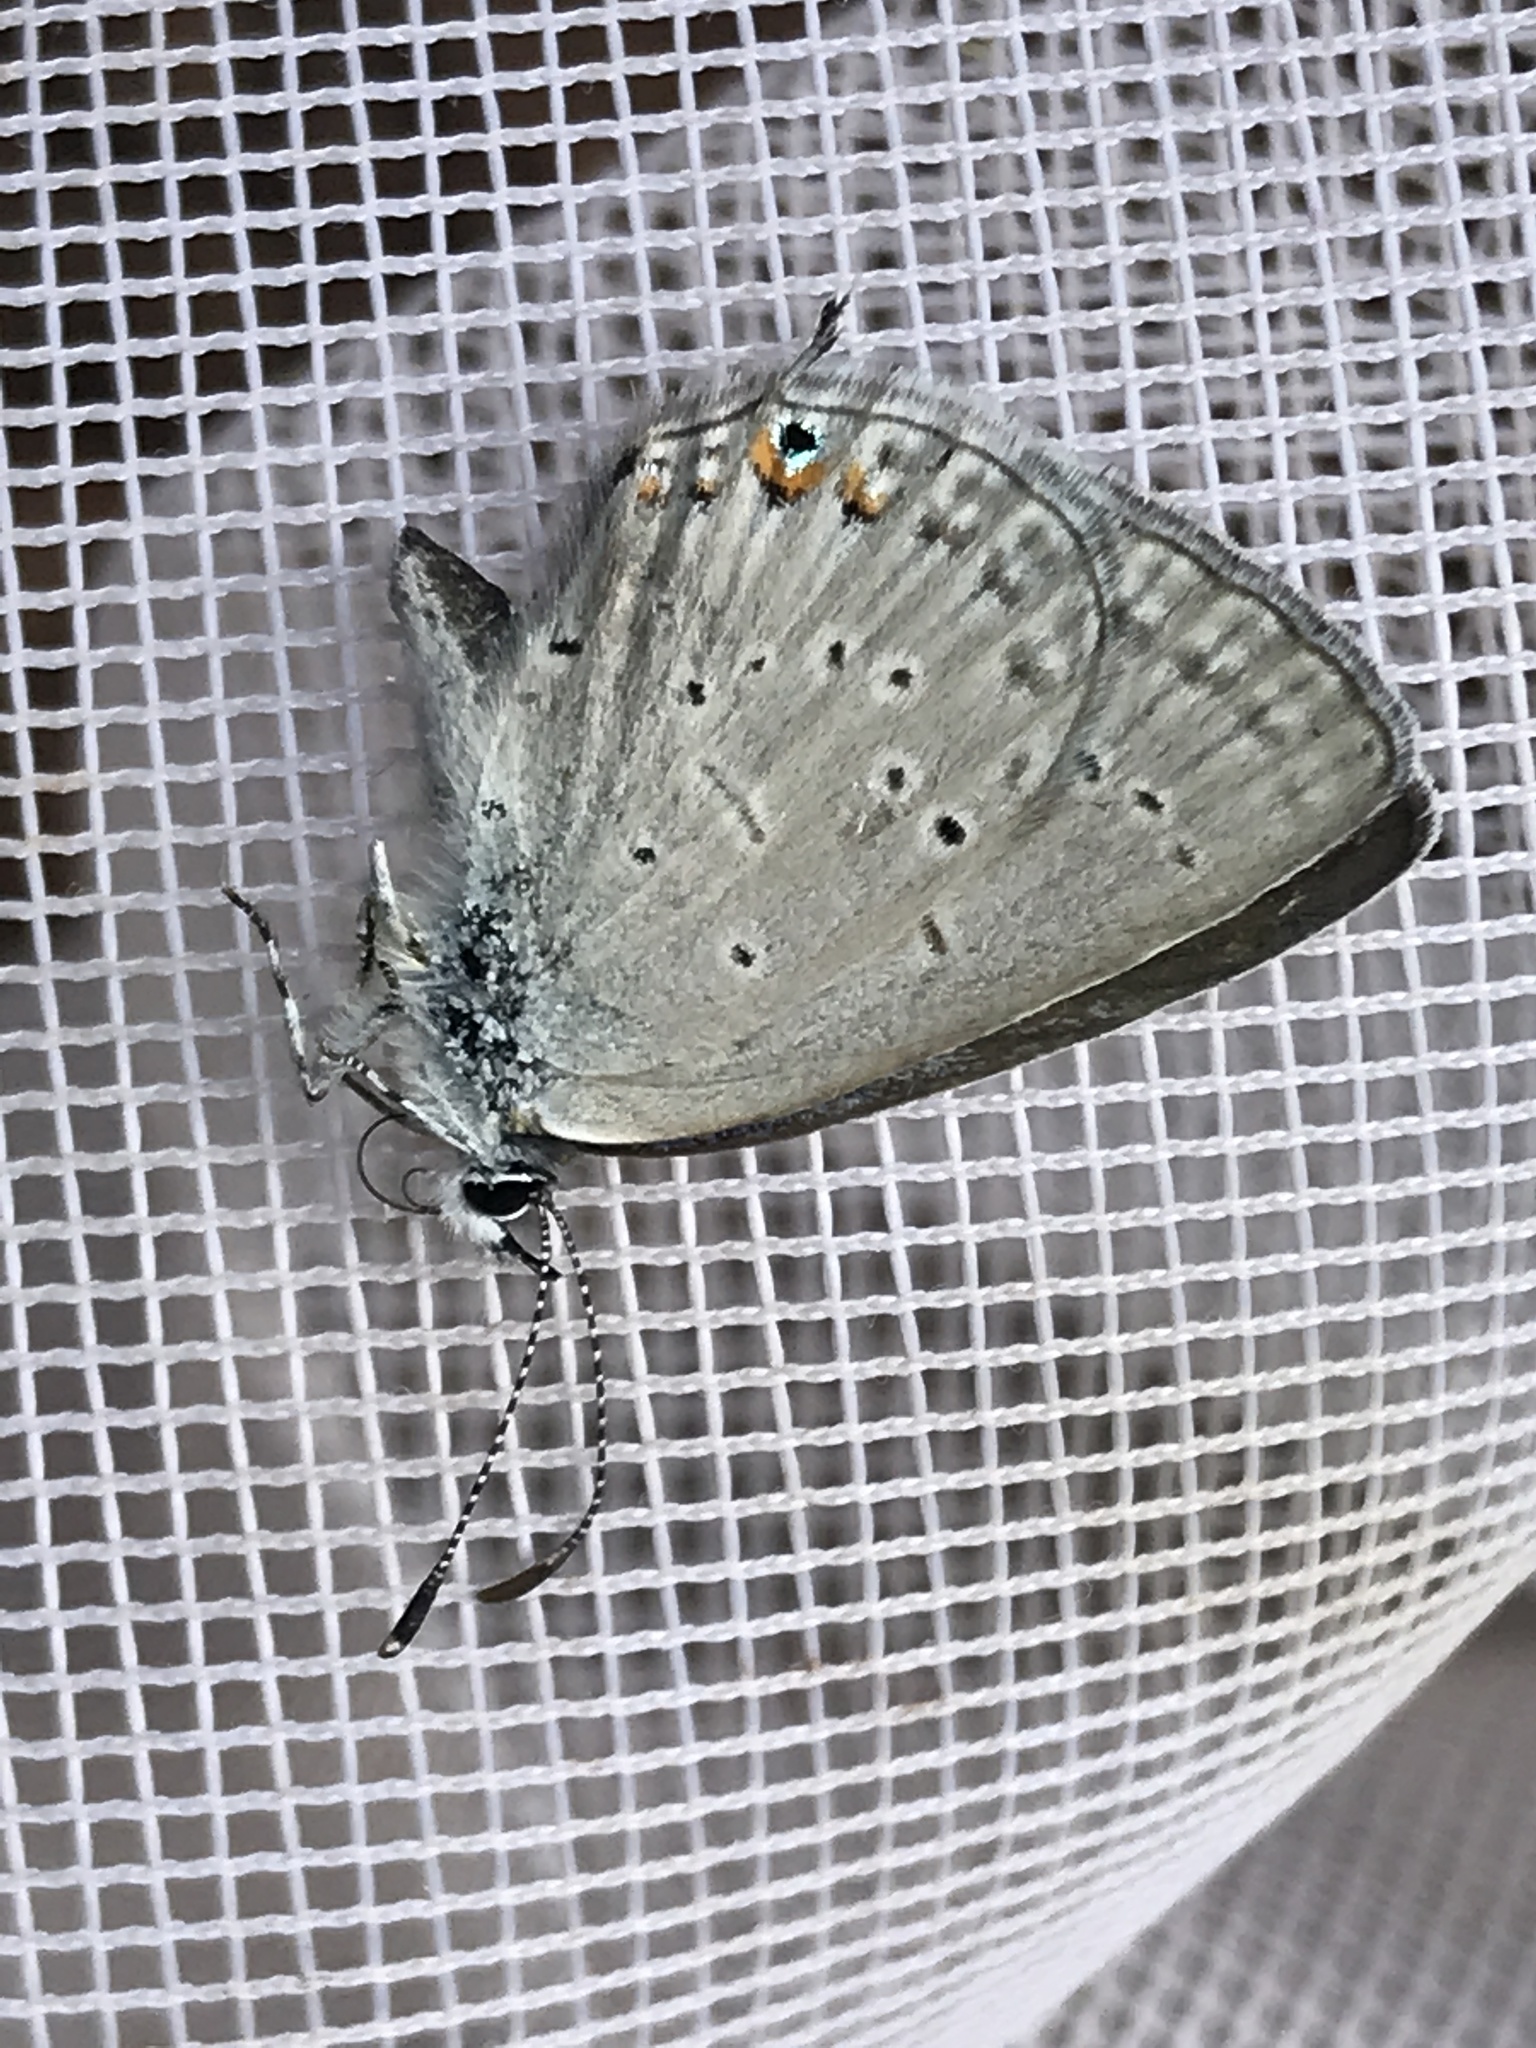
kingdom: Animalia
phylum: Arthropoda
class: Insecta
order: Lepidoptera
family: Lycaenidae
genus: Elkalyce
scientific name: Elkalyce amyntula
